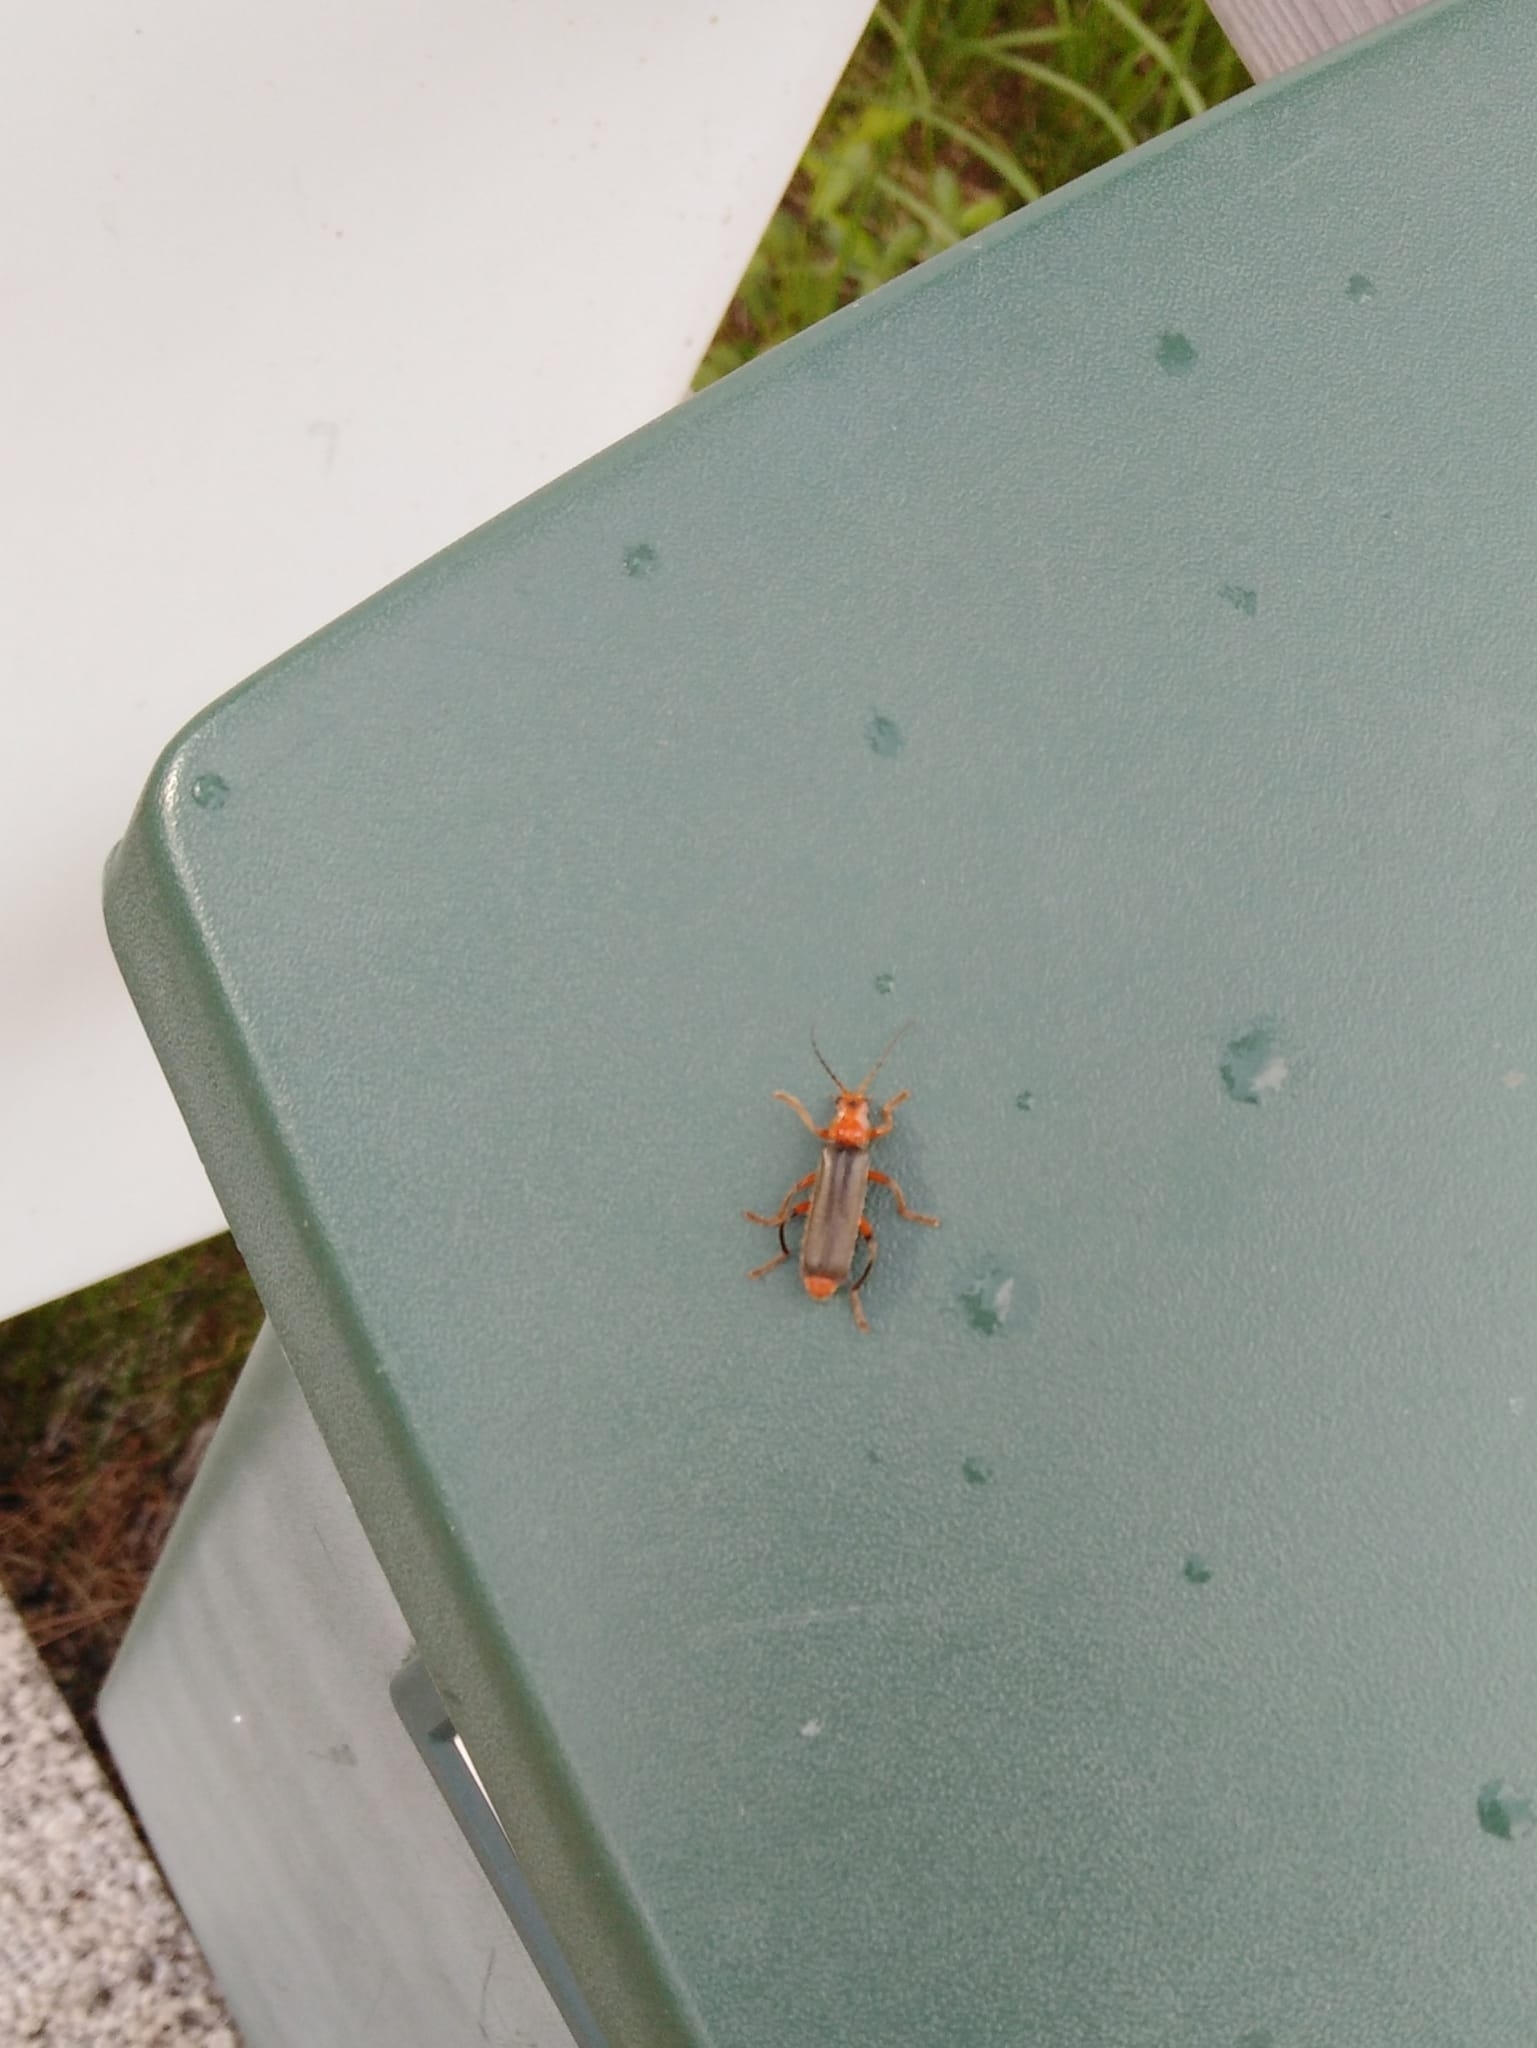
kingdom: Animalia
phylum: Arthropoda
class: Insecta
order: Coleoptera
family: Cantharidae
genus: Cantharis
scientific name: Cantharis livida
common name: Livid soldier beetle
